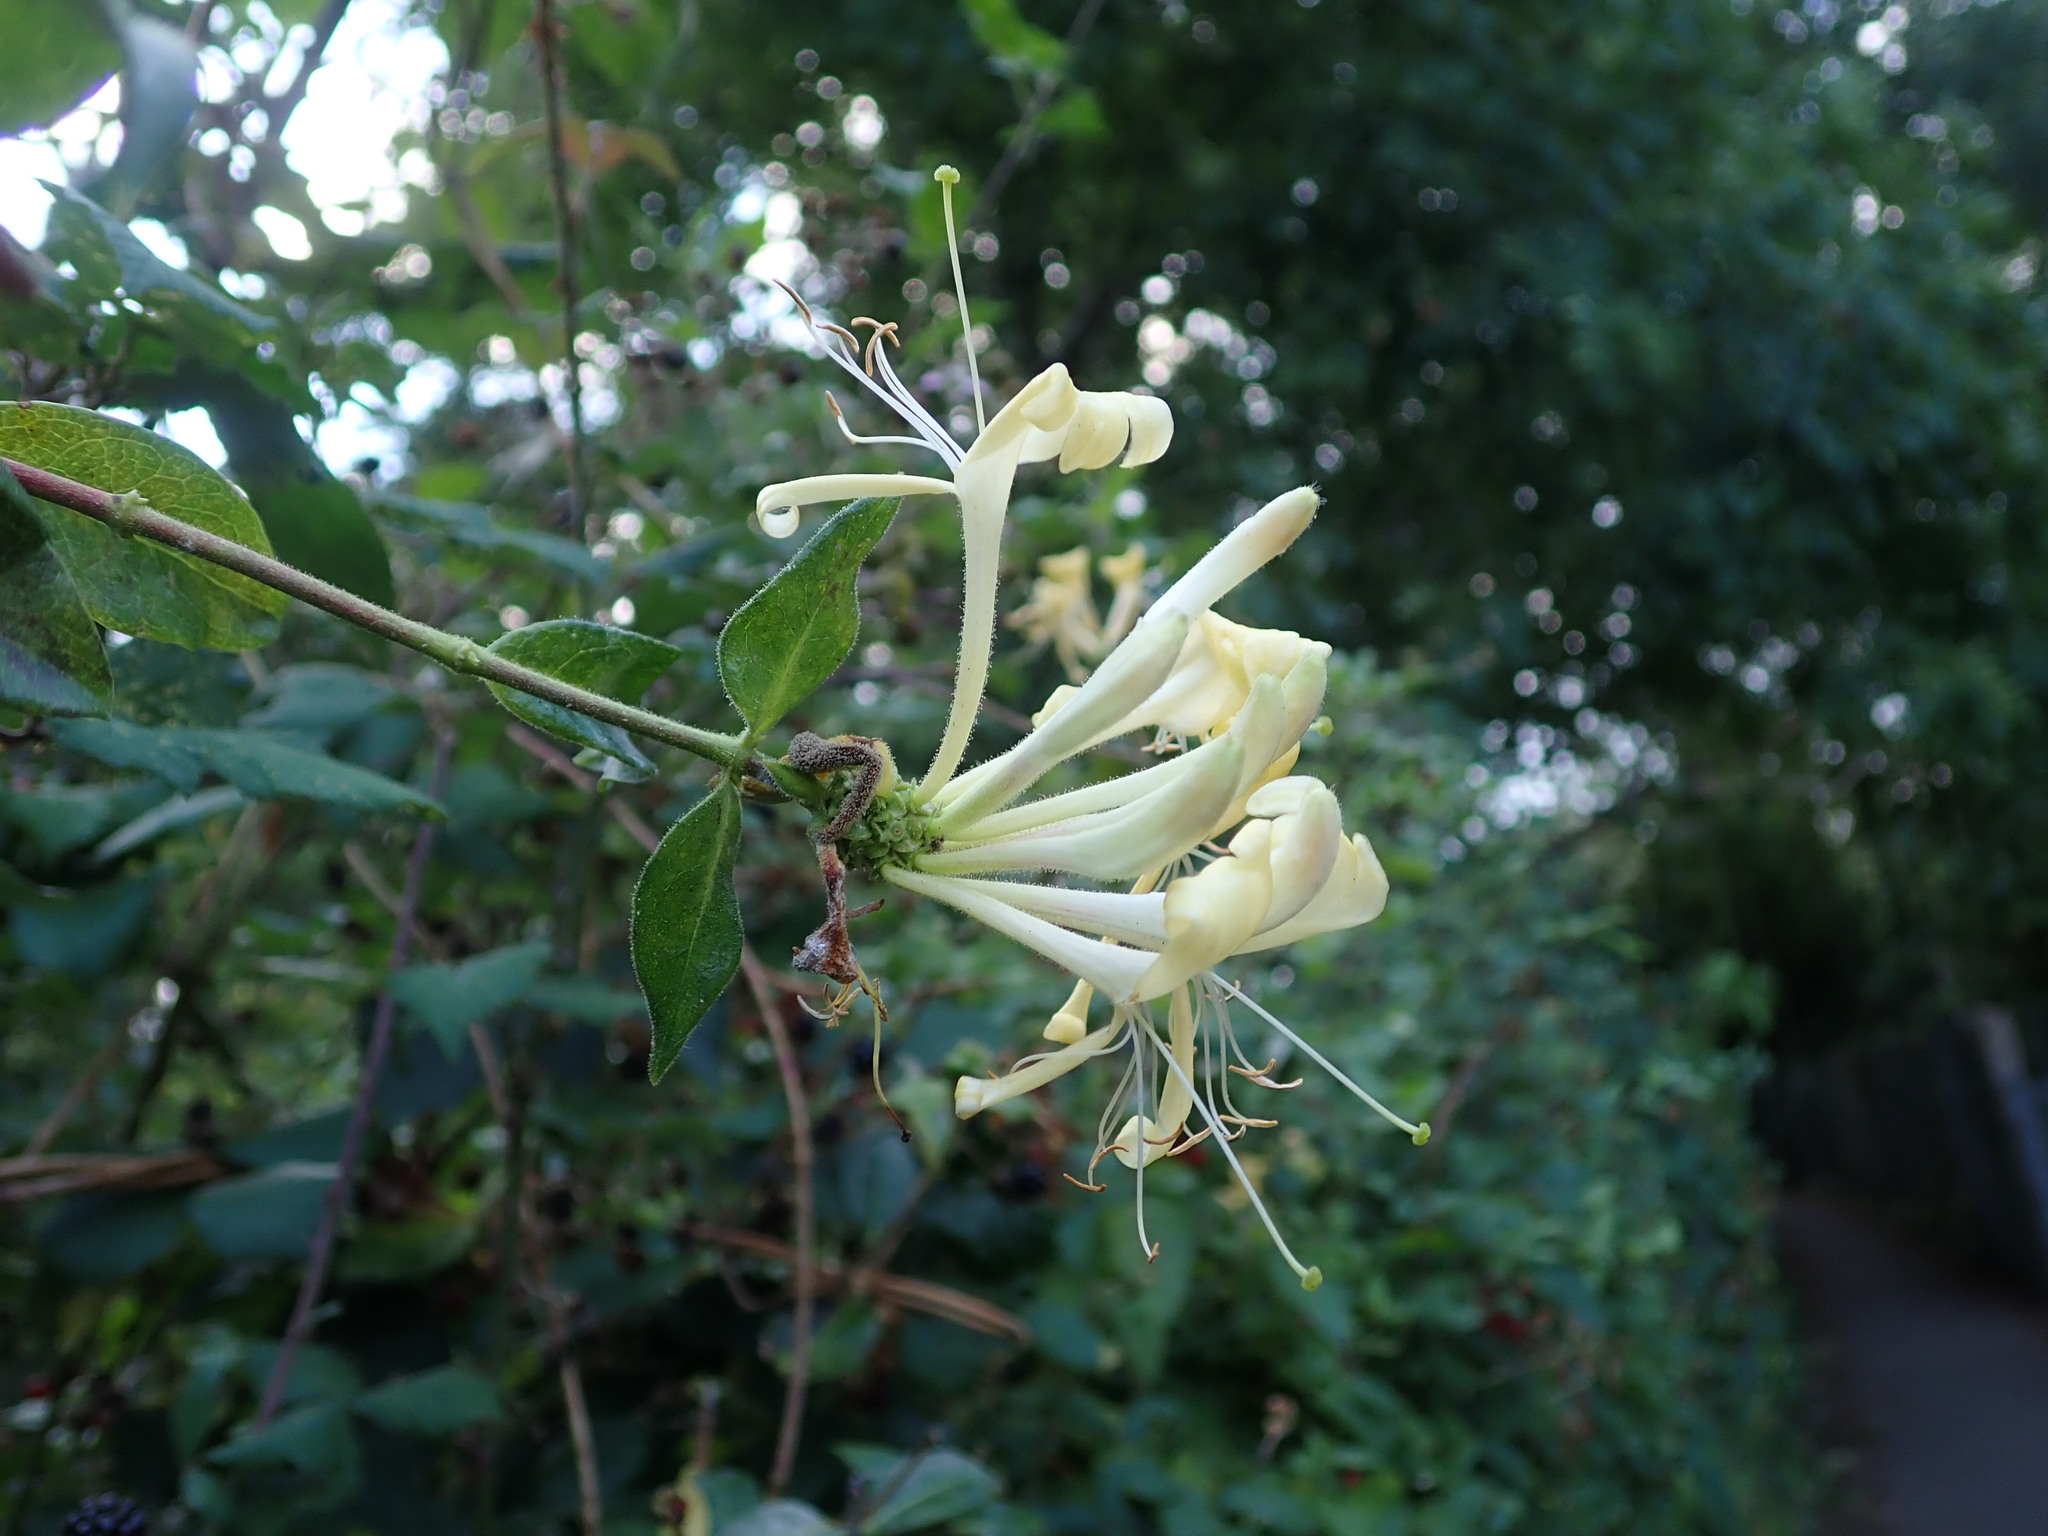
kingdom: Plantae
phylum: Tracheophyta
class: Magnoliopsida
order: Dipsacales
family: Caprifoliaceae
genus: Lonicera
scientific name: Lonicera periclymenum
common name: European honeysuckle
